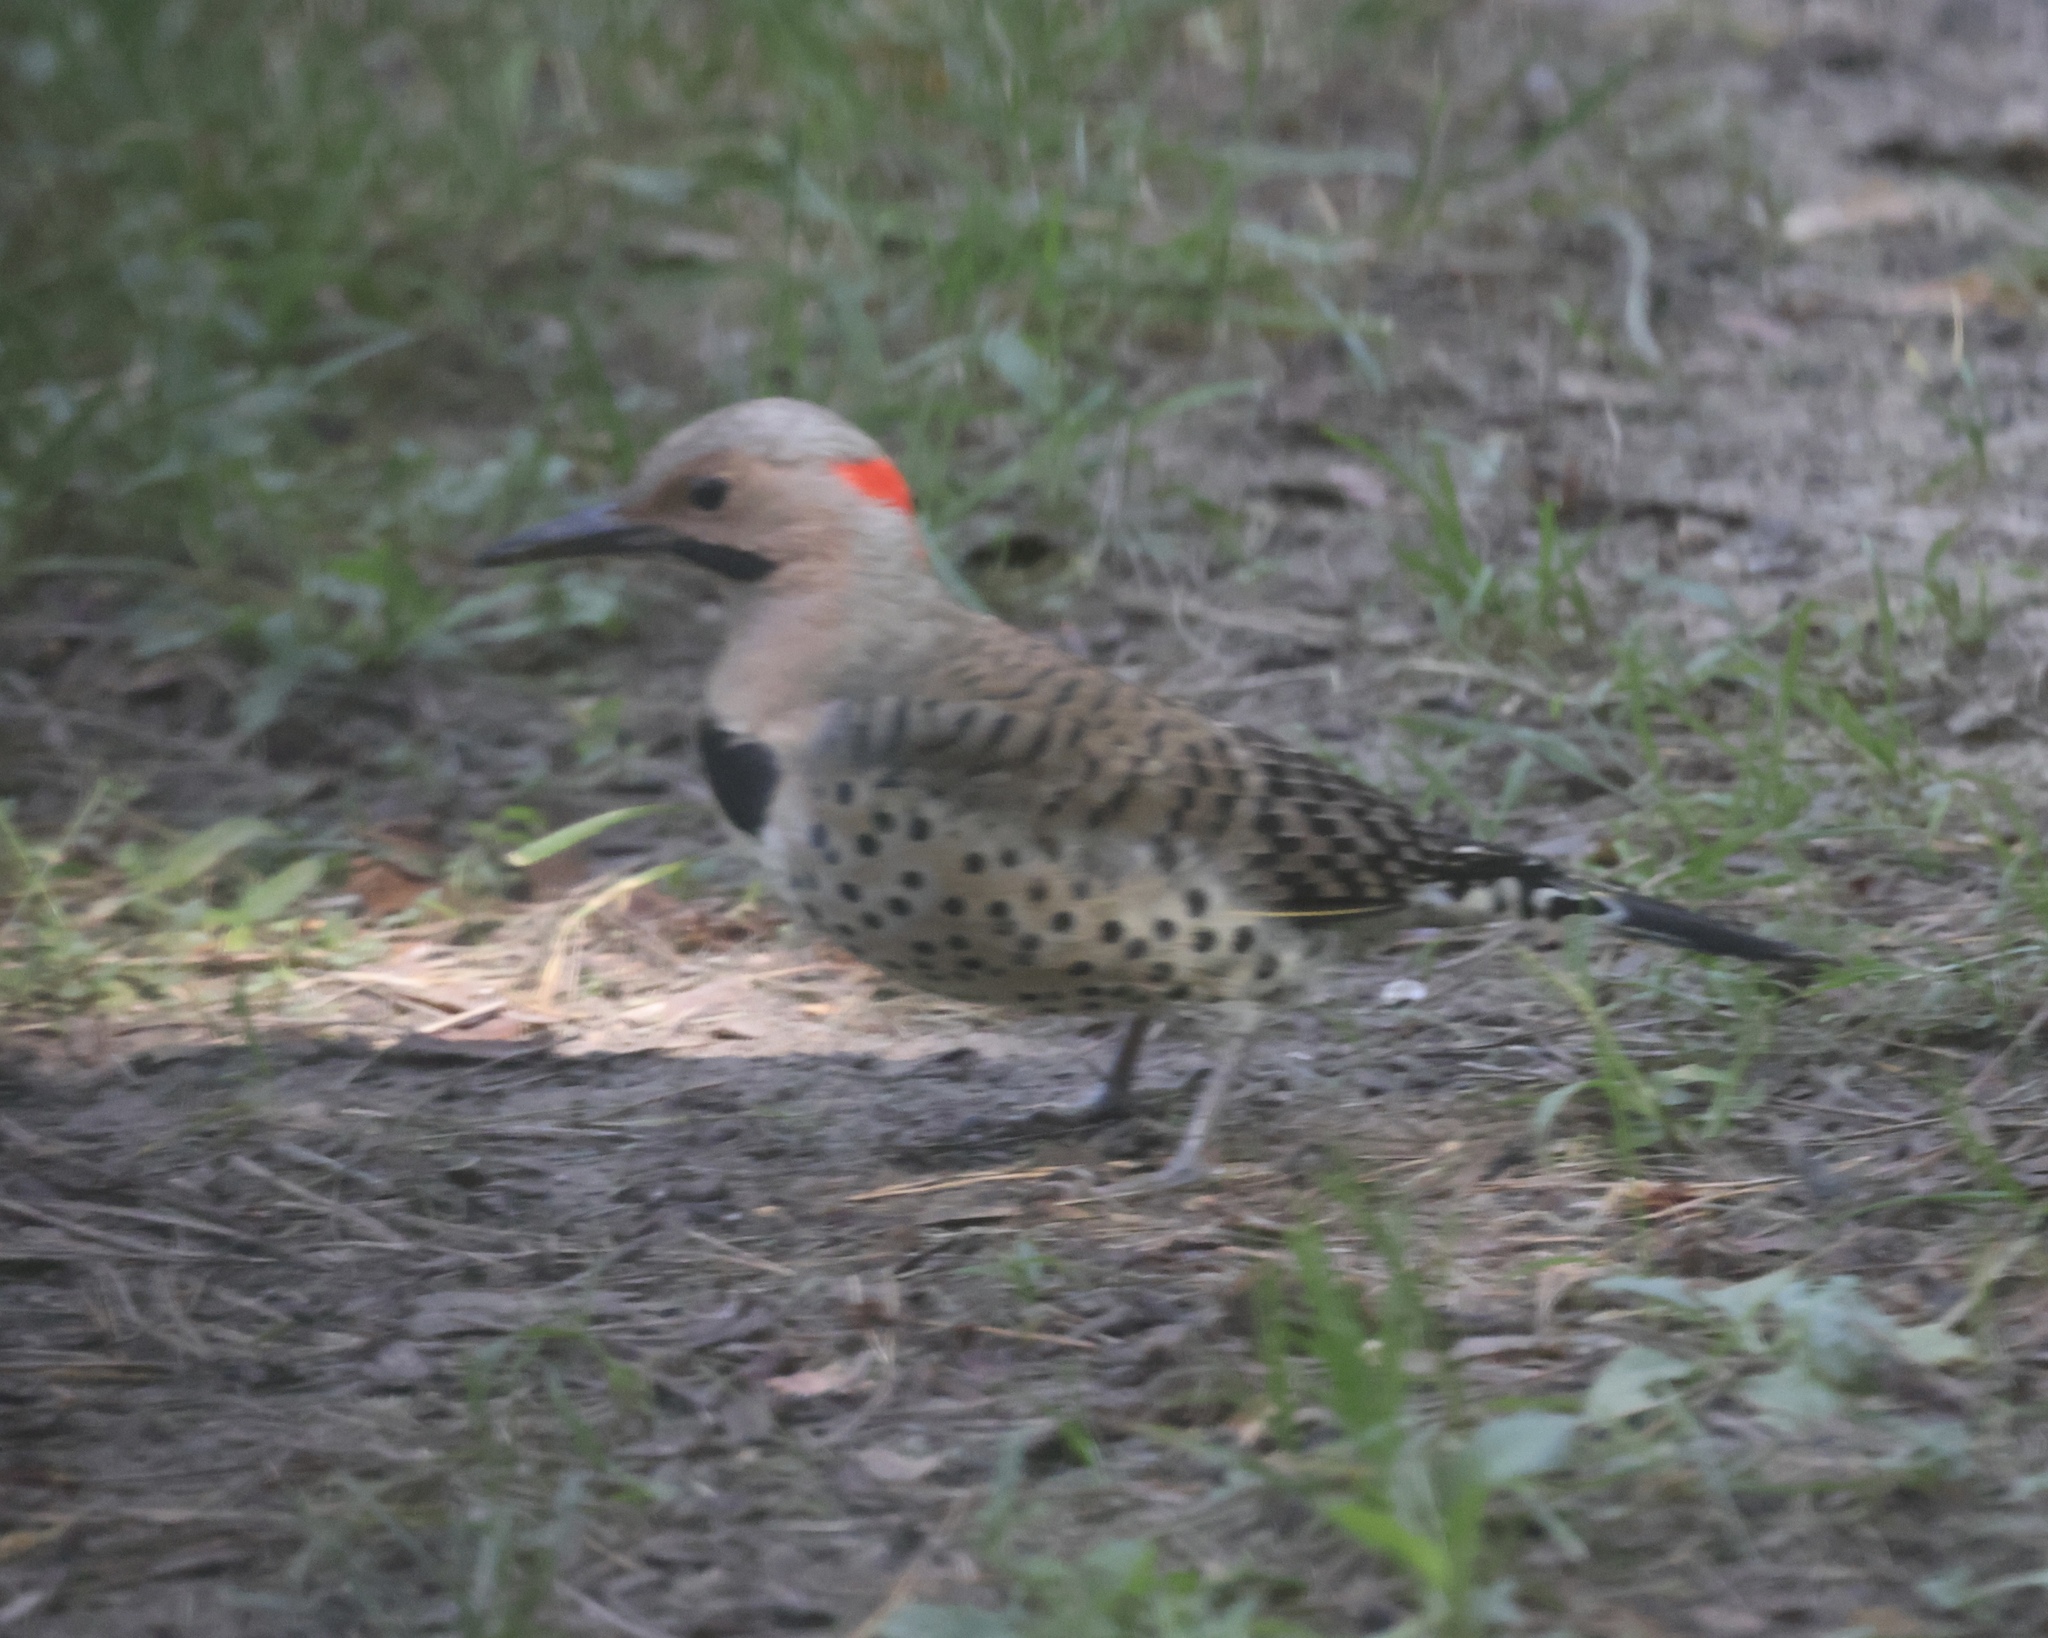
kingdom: Animalia
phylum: Chordata
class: Aves
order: Piciformes
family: Picidae
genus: Colaptes
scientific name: Colaptes auratus
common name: Northern flicker
